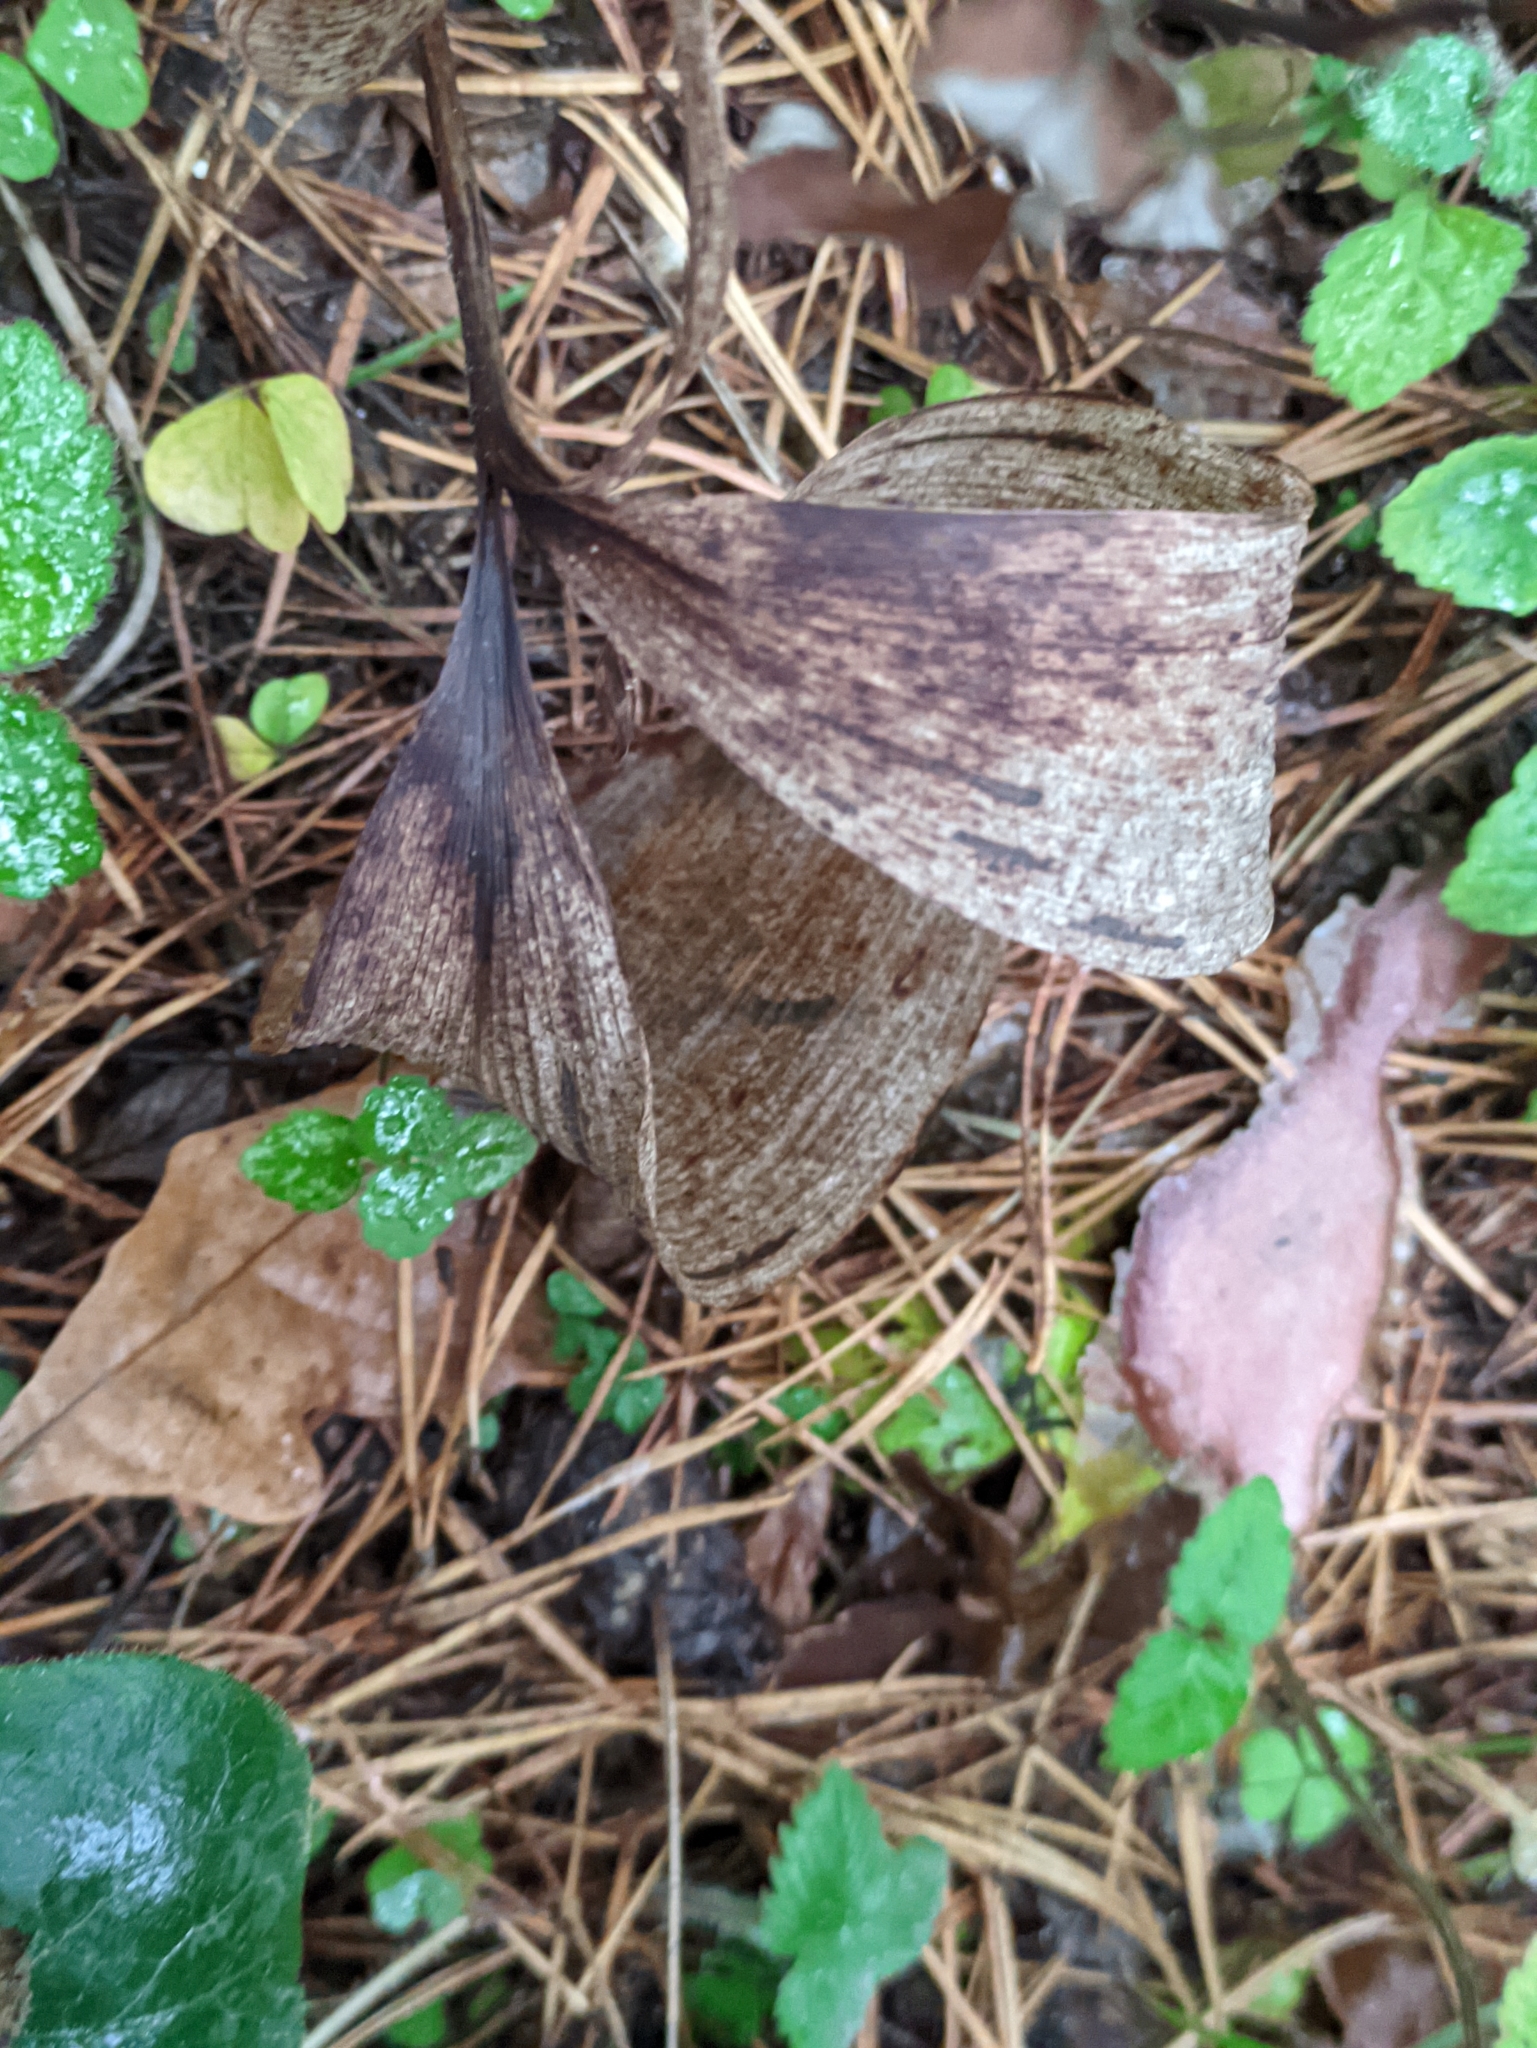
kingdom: Plantae
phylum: Tracheophyta
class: Liliopsida
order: Asparagales
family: Asparagaceae
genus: Convallaria
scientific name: Convallaria majalis
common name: Lily-of-the-valley
